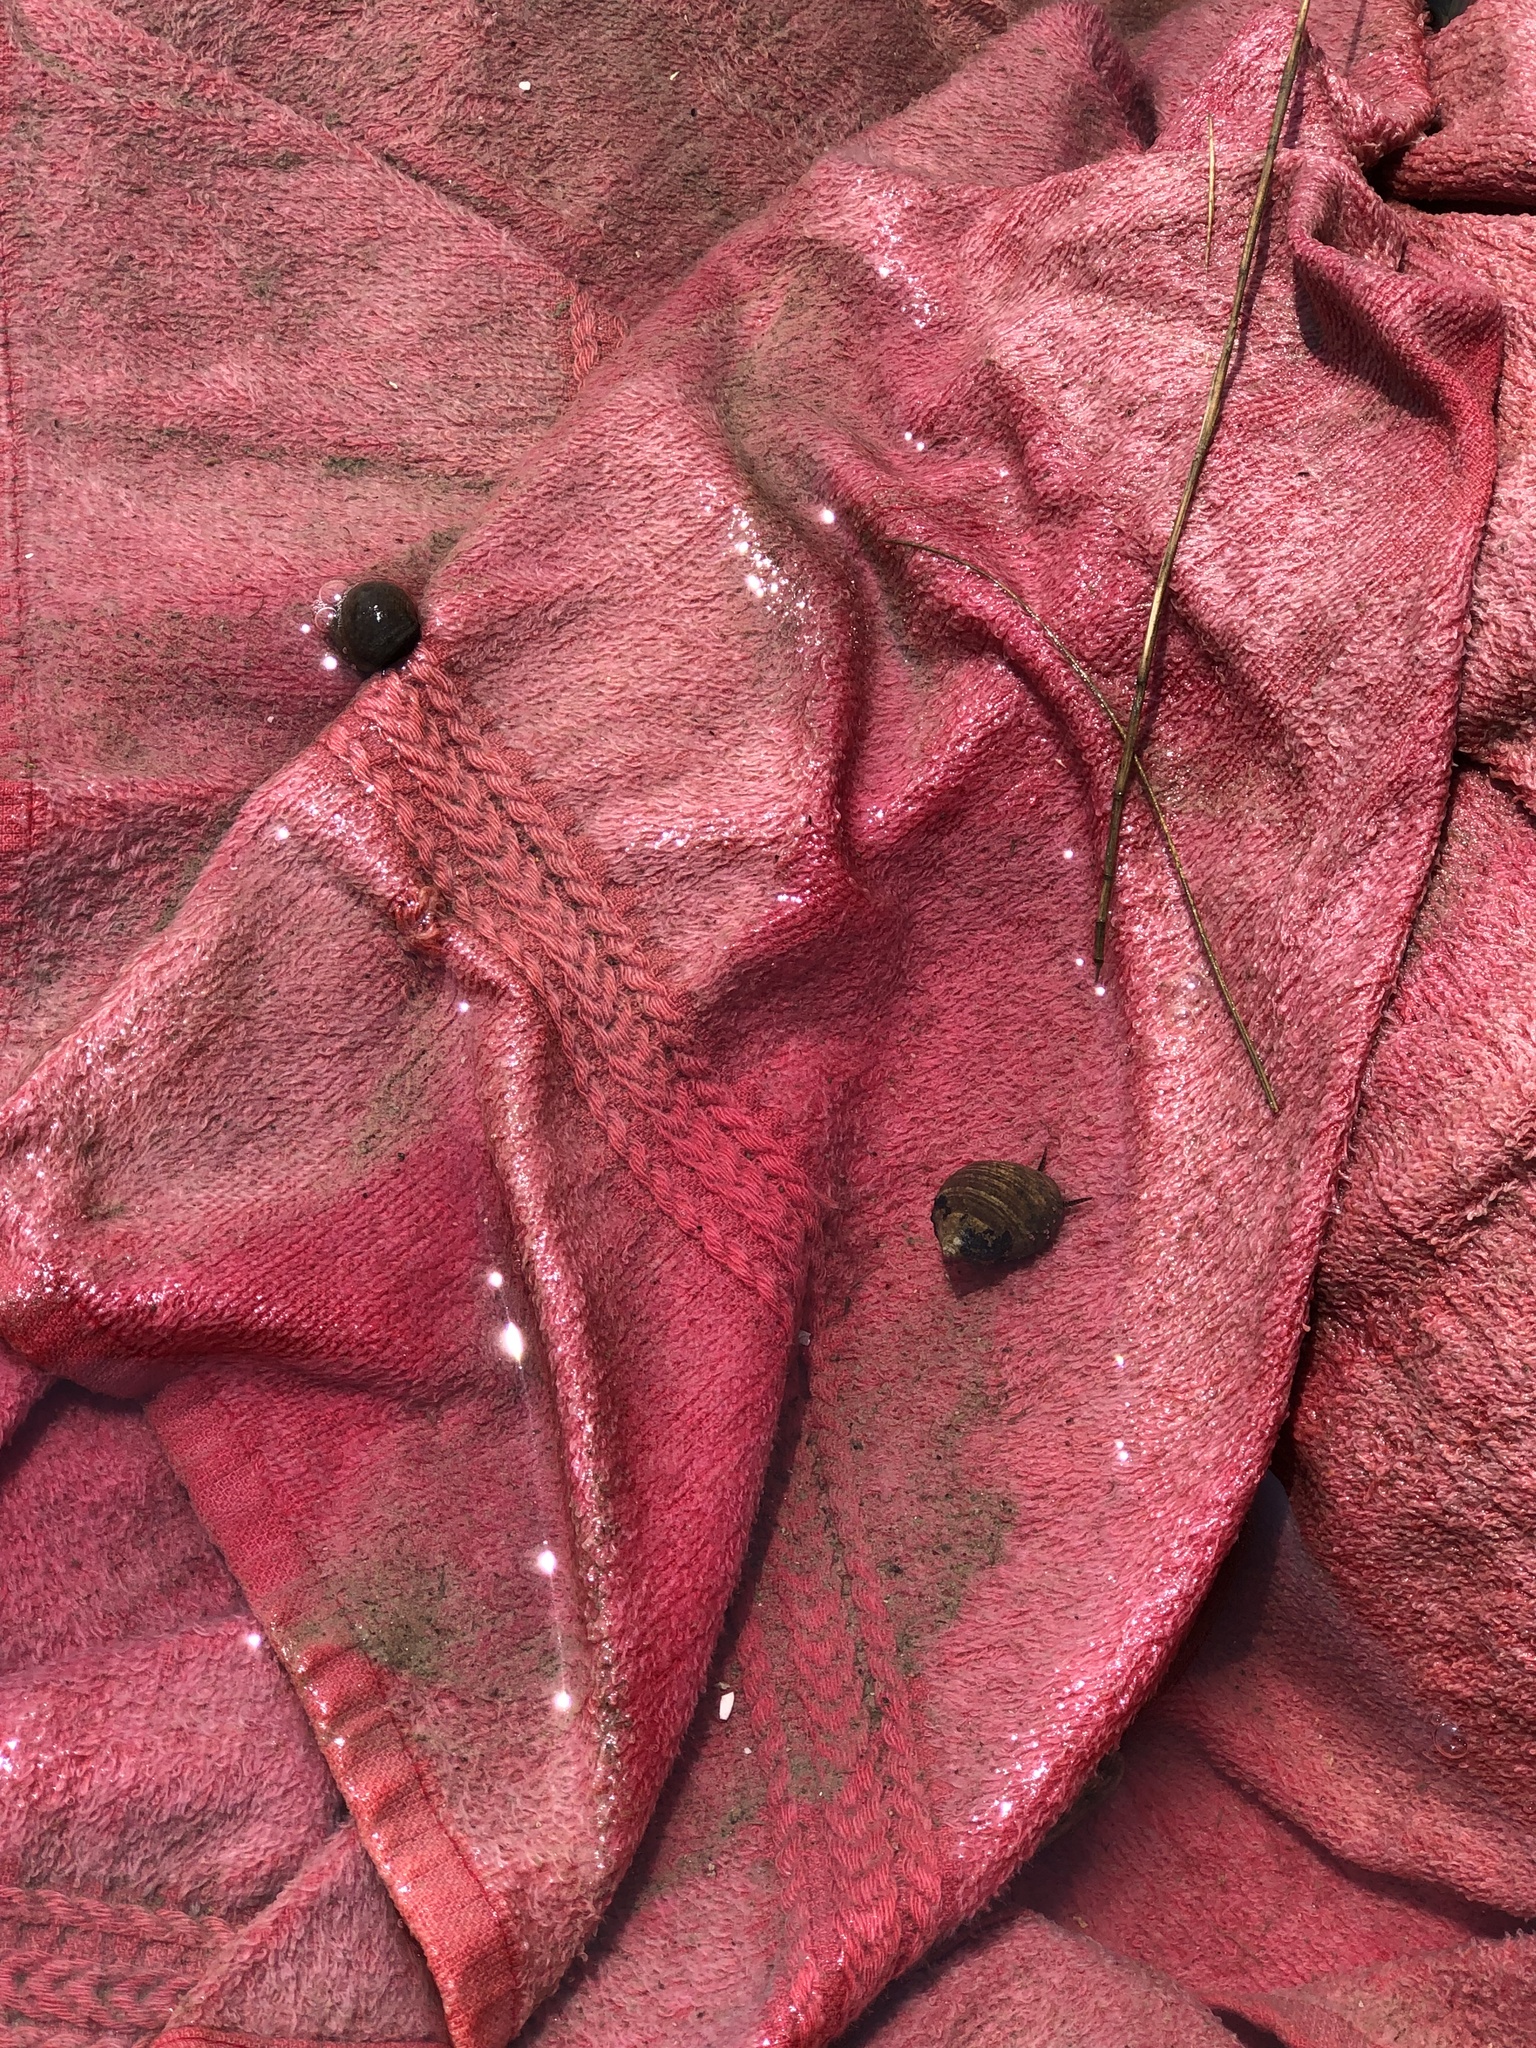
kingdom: Animalia
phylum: Mollusca
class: Gastropoda
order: Littorinimorpha
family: Littorinidae
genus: Littorina
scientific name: Littorina littorea
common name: Common periwinkle
